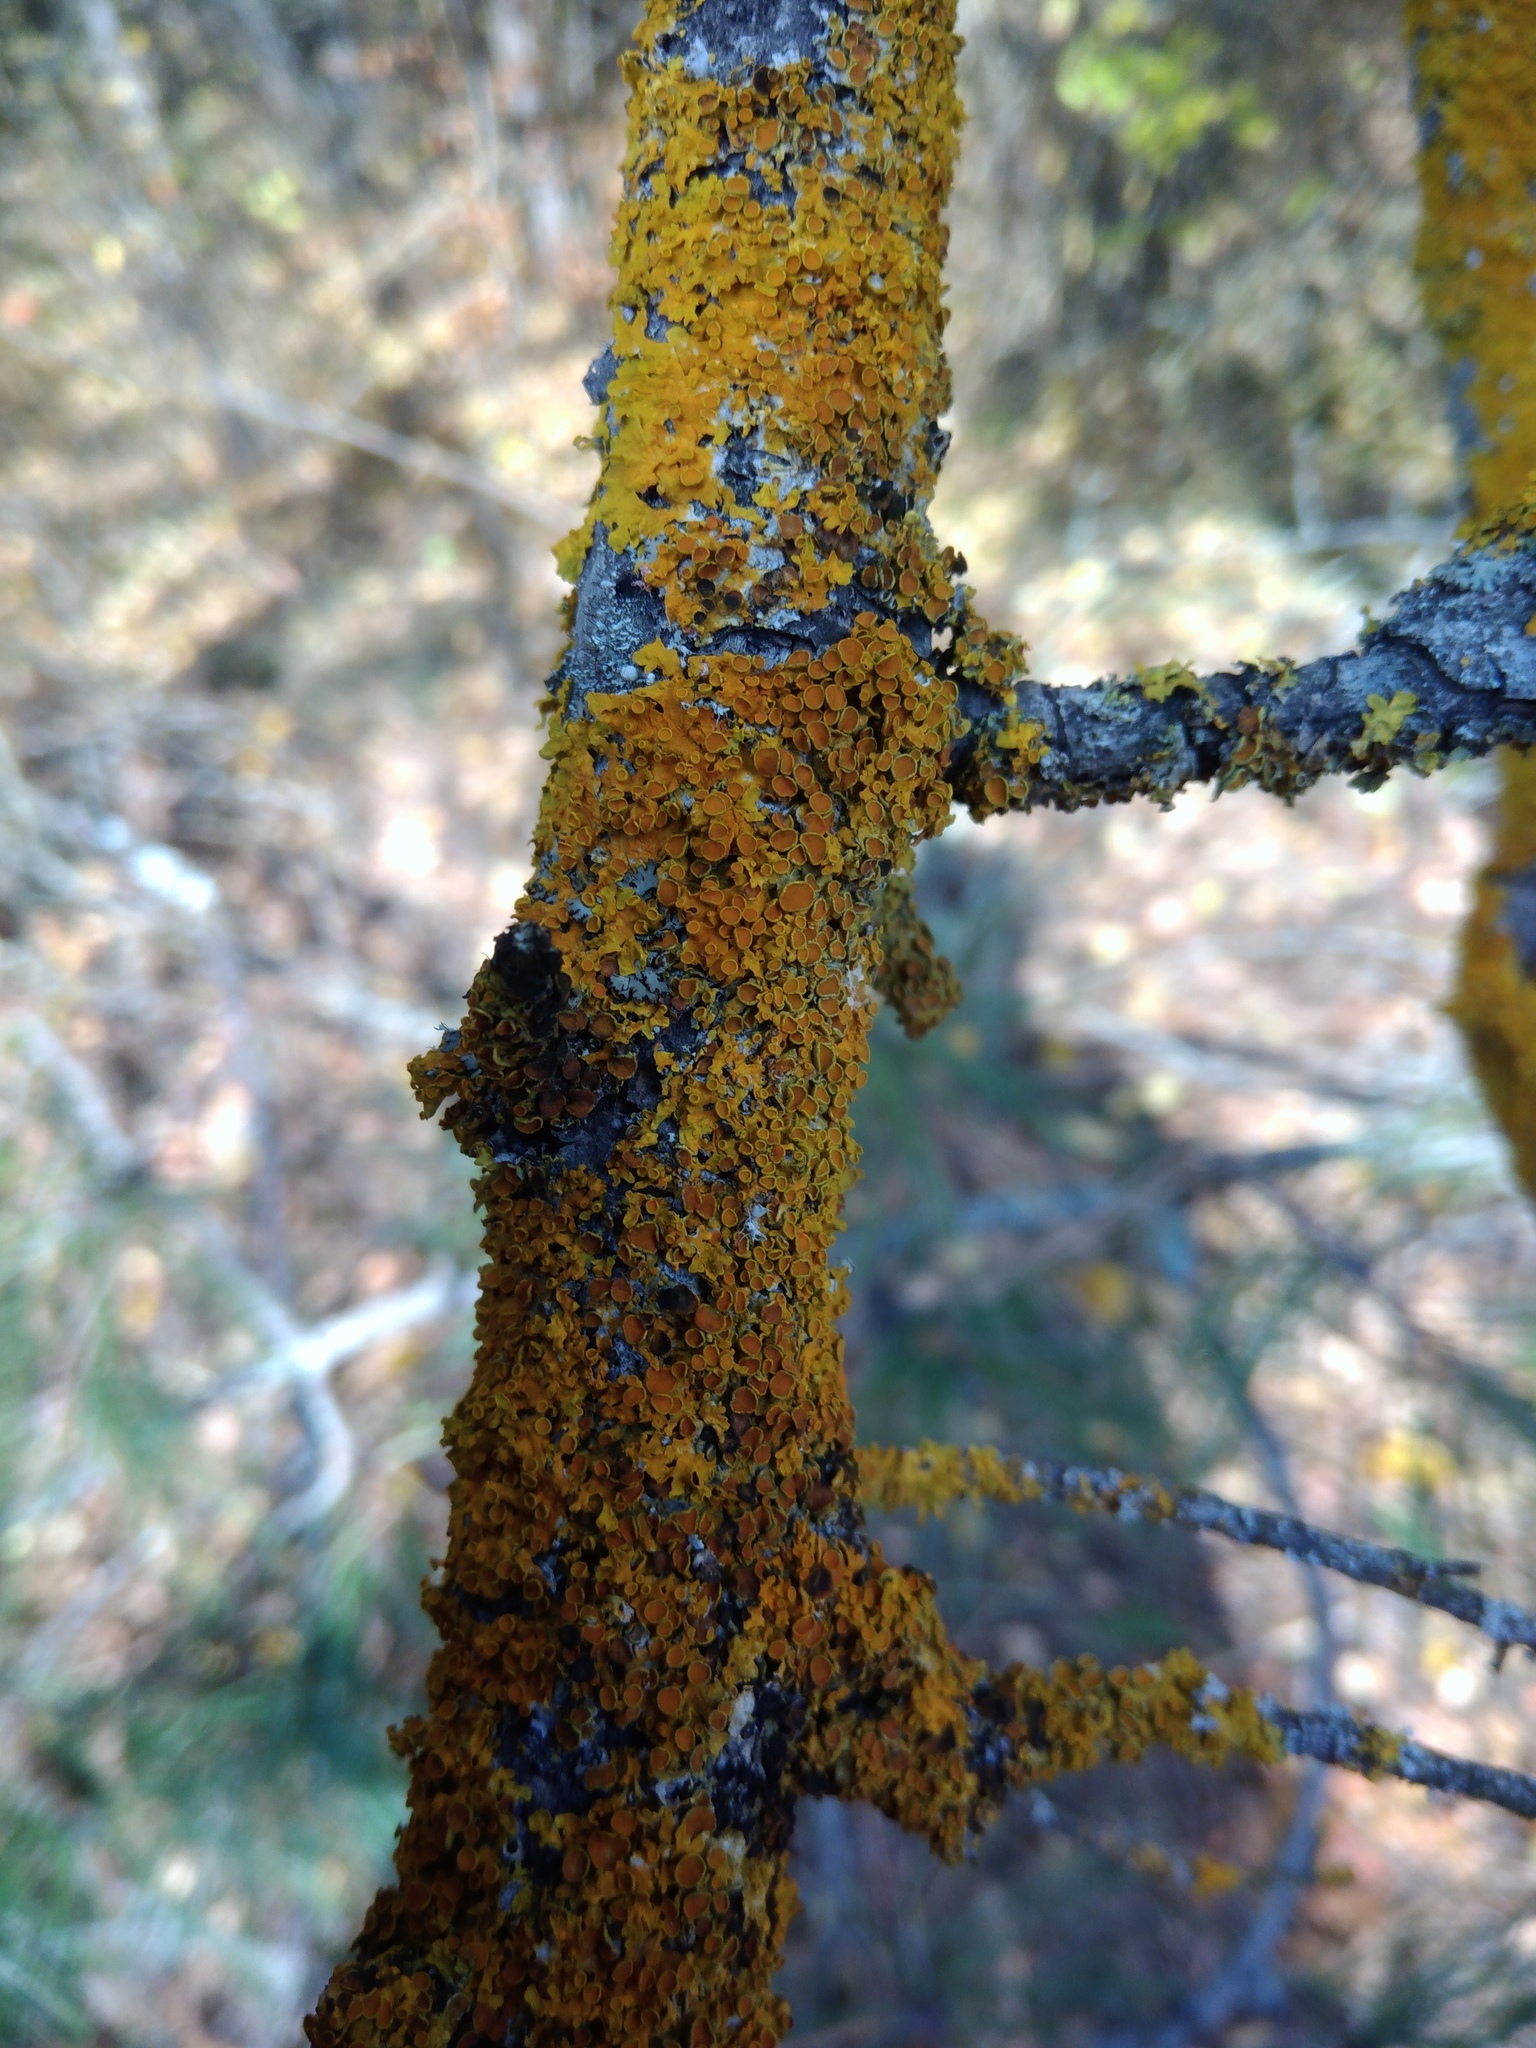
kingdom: Fungi
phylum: Ascomycota
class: Lecanoromycetes
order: Teloschistales
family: Teloschistaceae
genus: Xanthoria
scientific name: Xanthoria parietina
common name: Common orange lichen
